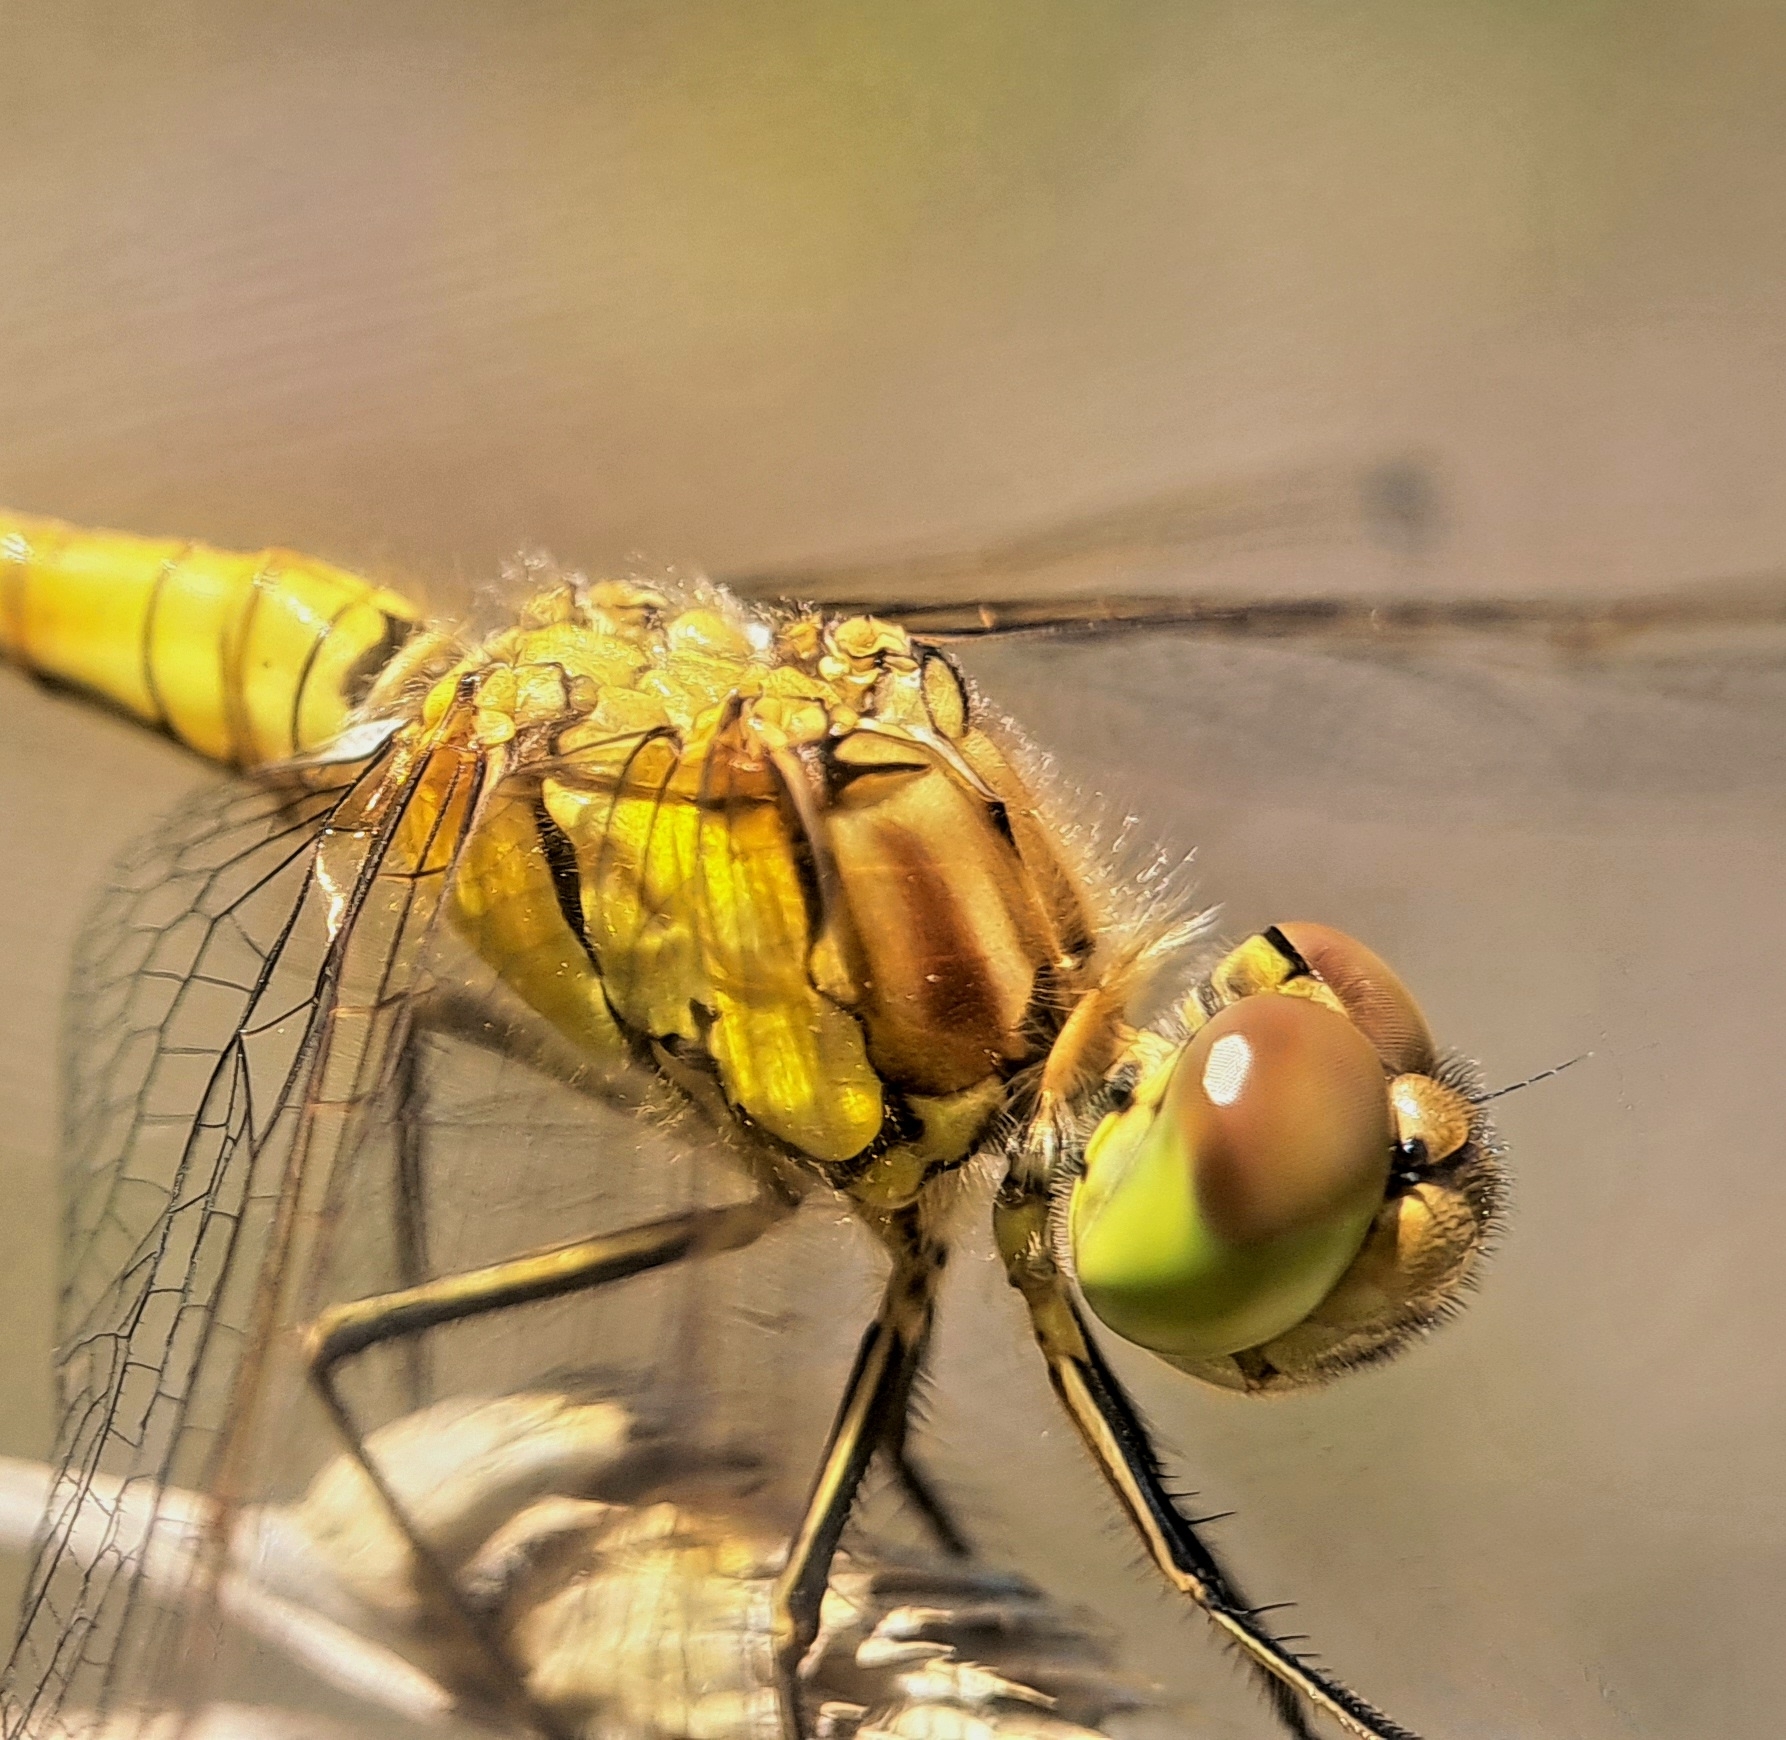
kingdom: Animalia
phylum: Arthropoda
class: Insecta
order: Odonata
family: Libellulidae
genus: Sympetrum
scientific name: Sympetrum striolatum
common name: Common darter
